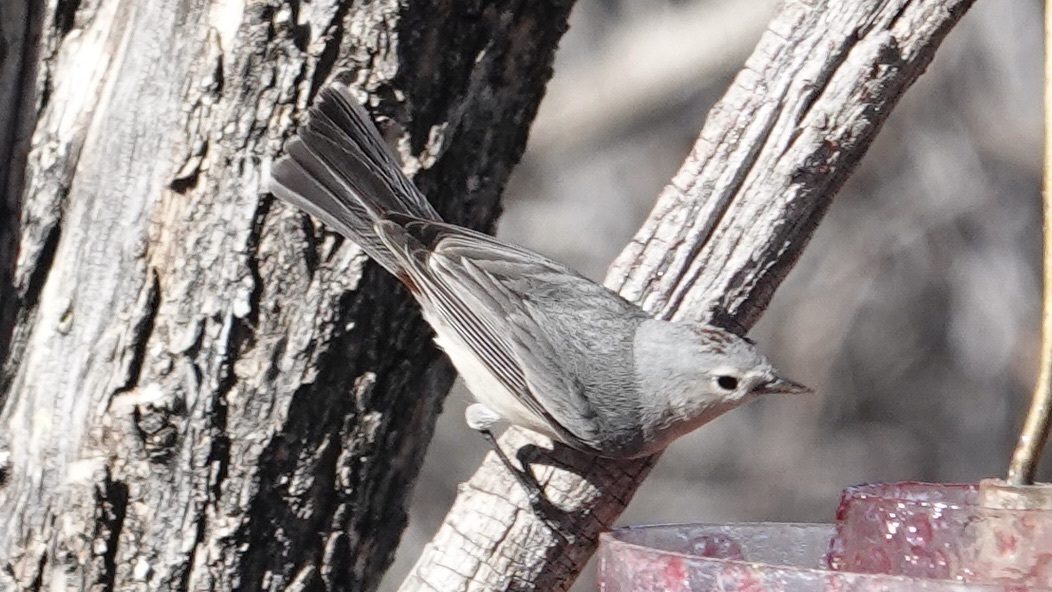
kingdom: Animalia
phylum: Chordata
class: Aves
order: Passeriformes
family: Parulidae
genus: Leiothlypis
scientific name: Leiothlypis luciae
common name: Lucy's warbler
